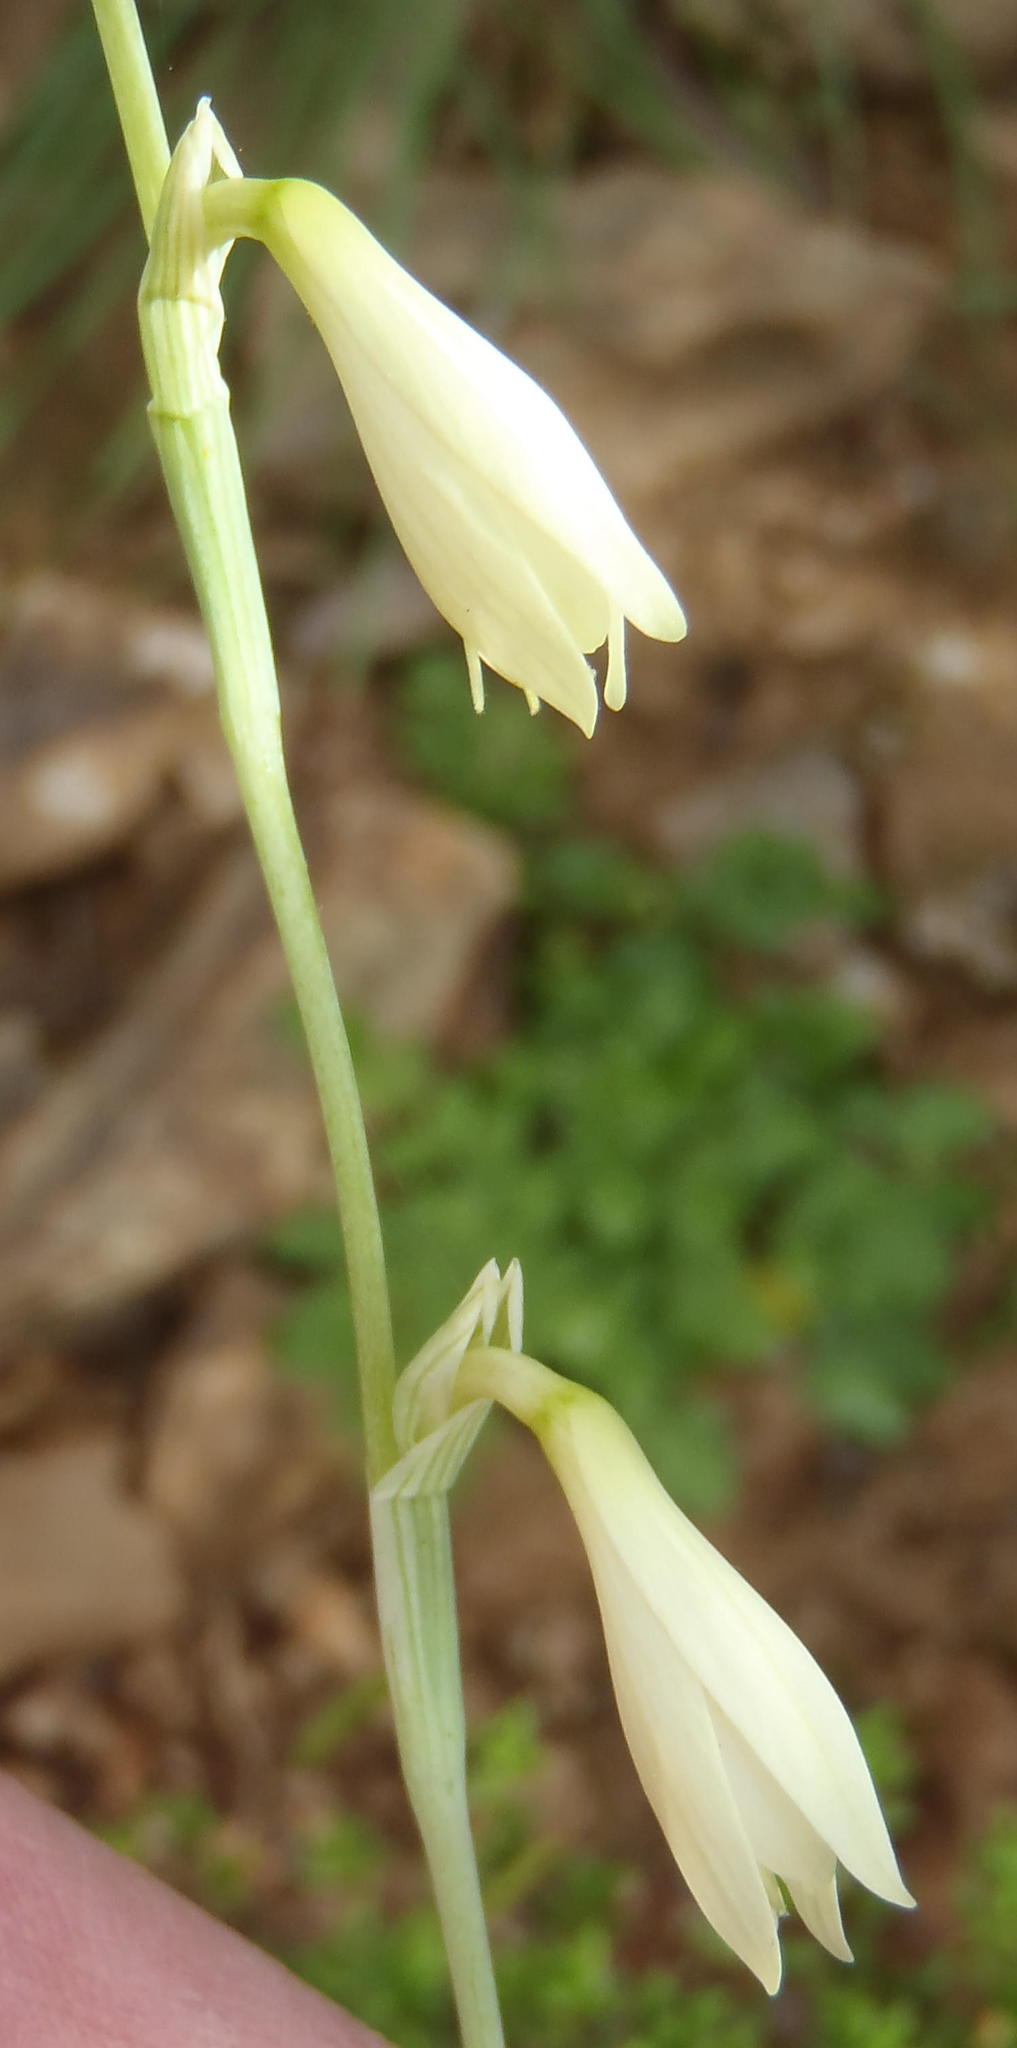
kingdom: Plantae
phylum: Tracheophyta
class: Liliopsida
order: Asparagales
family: Iridaceae
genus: Hesperantha
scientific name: Hesperantha acuta
